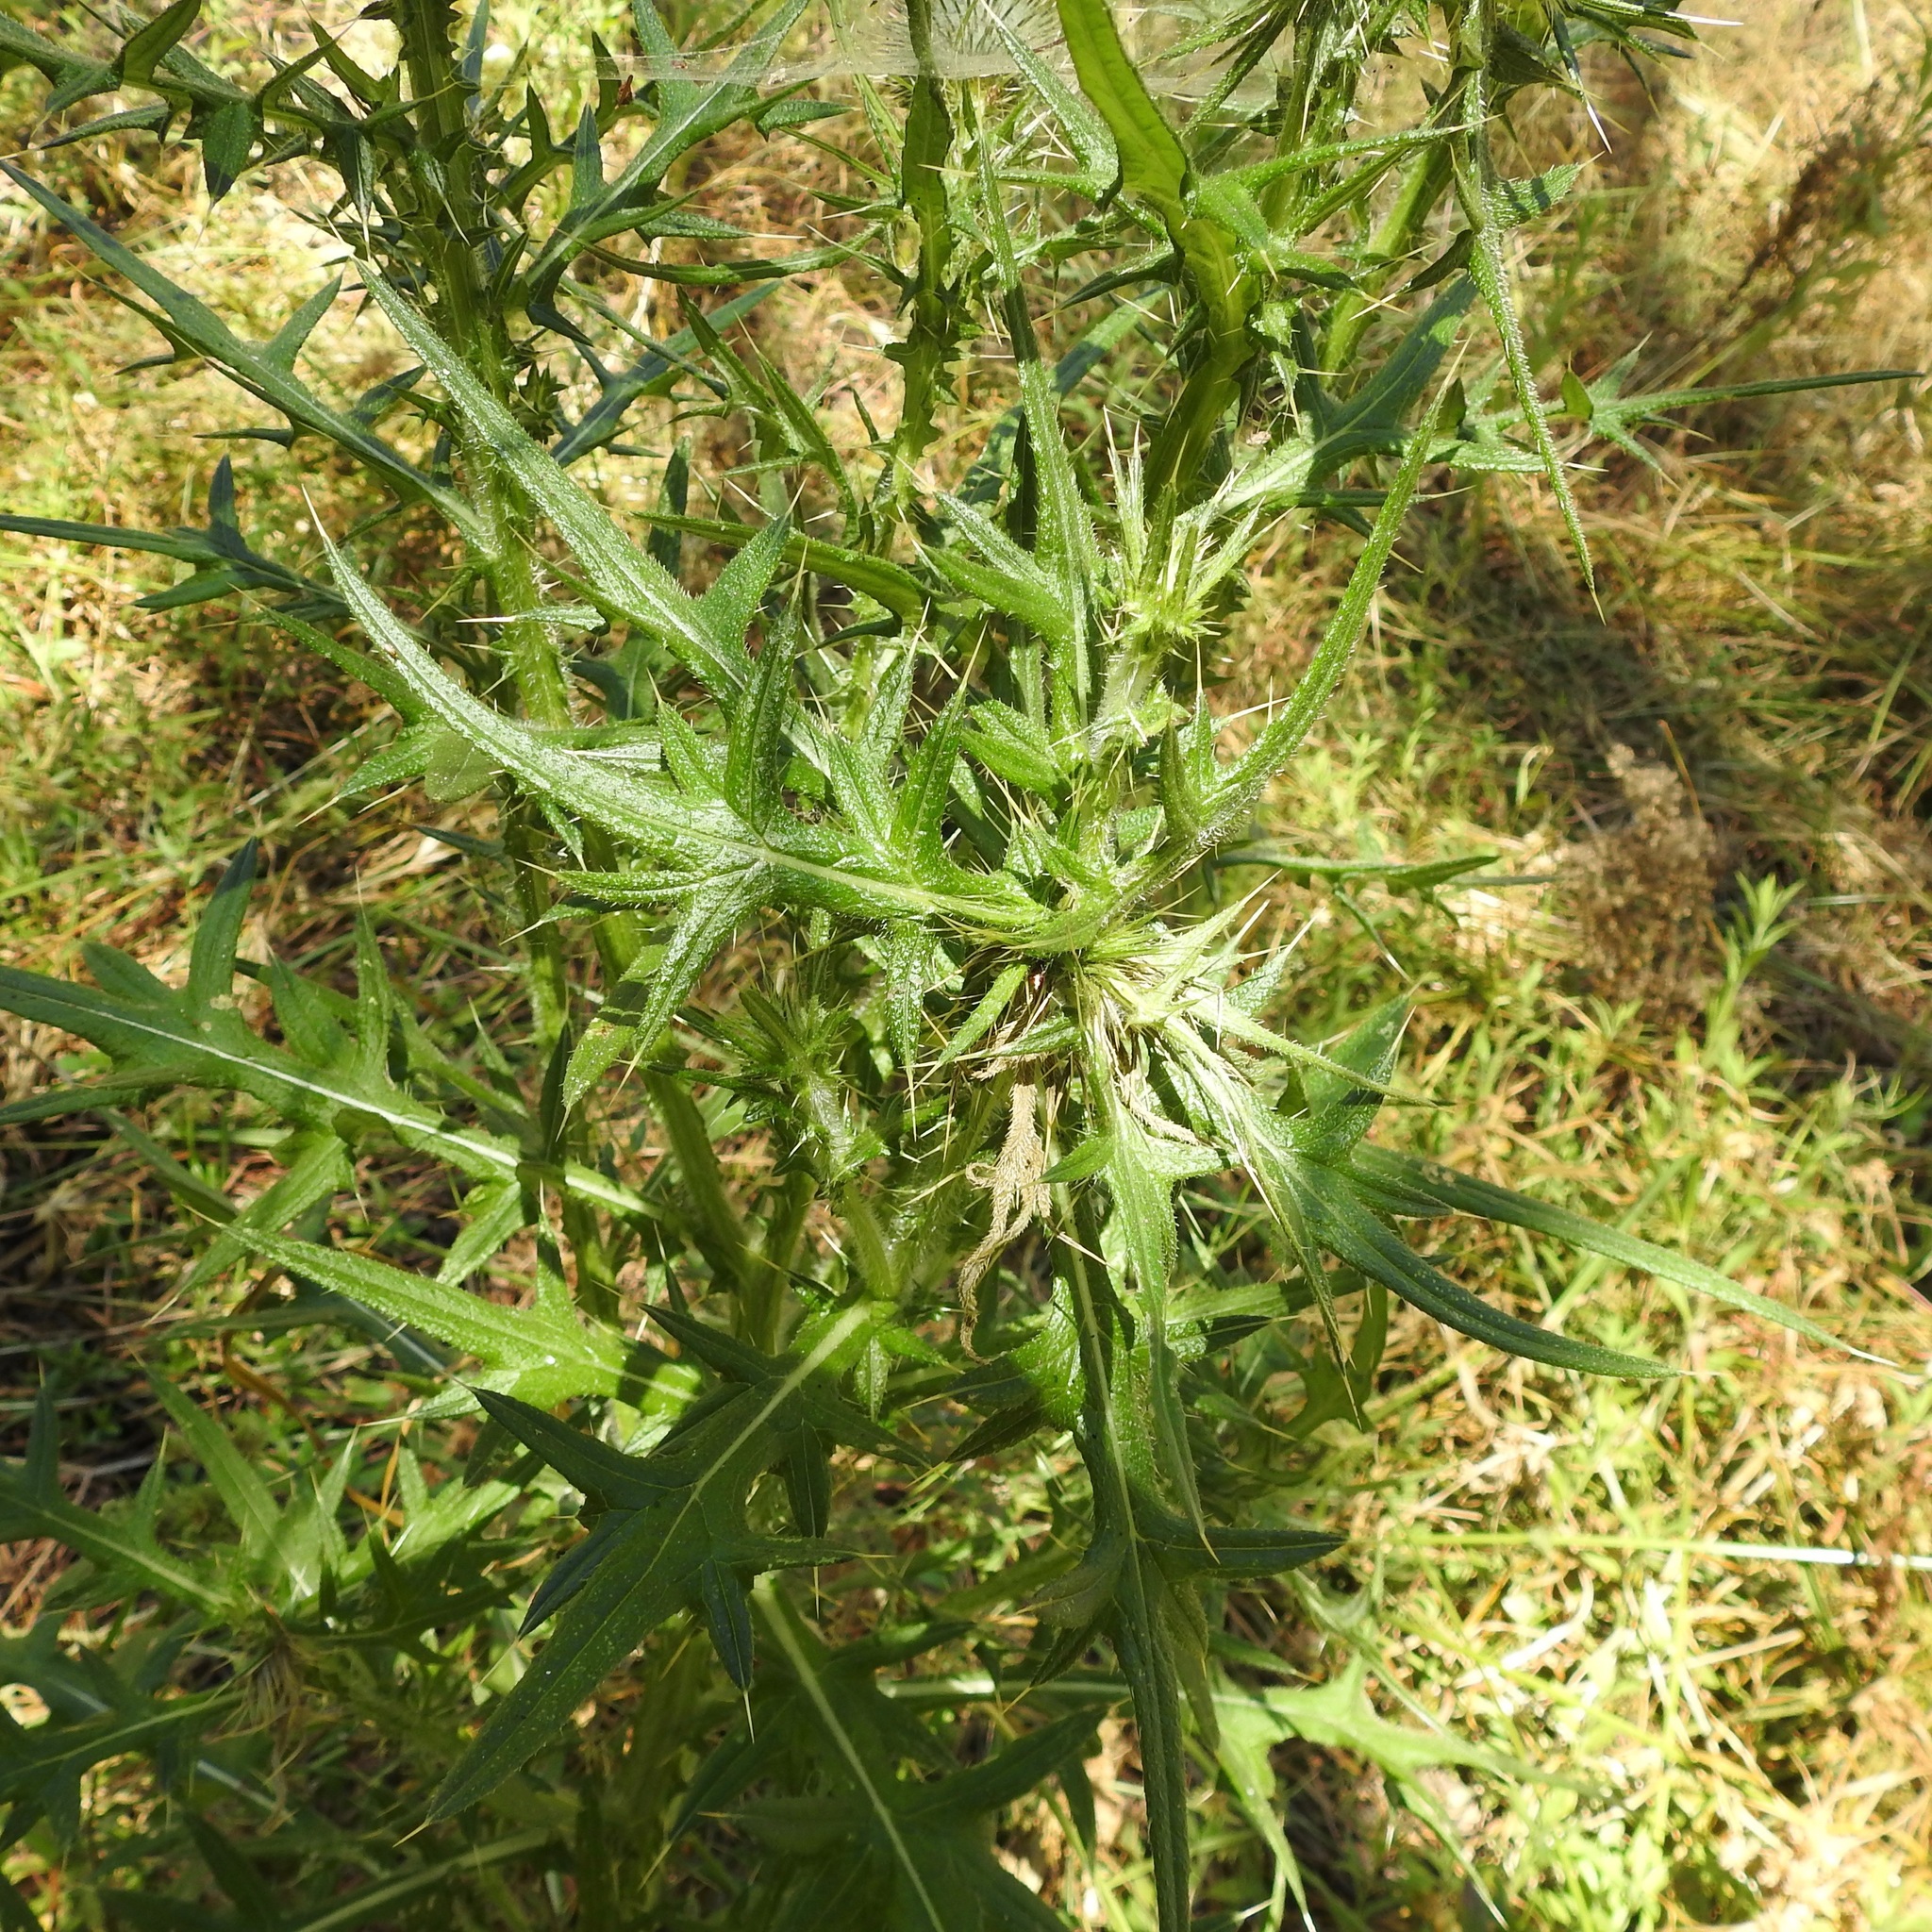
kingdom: Plantae
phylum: Tracheophyta
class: Magnoliopsida
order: Asterales
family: Asteraceae
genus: Cirsium
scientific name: Cirsium vulgare
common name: Bull thistle
